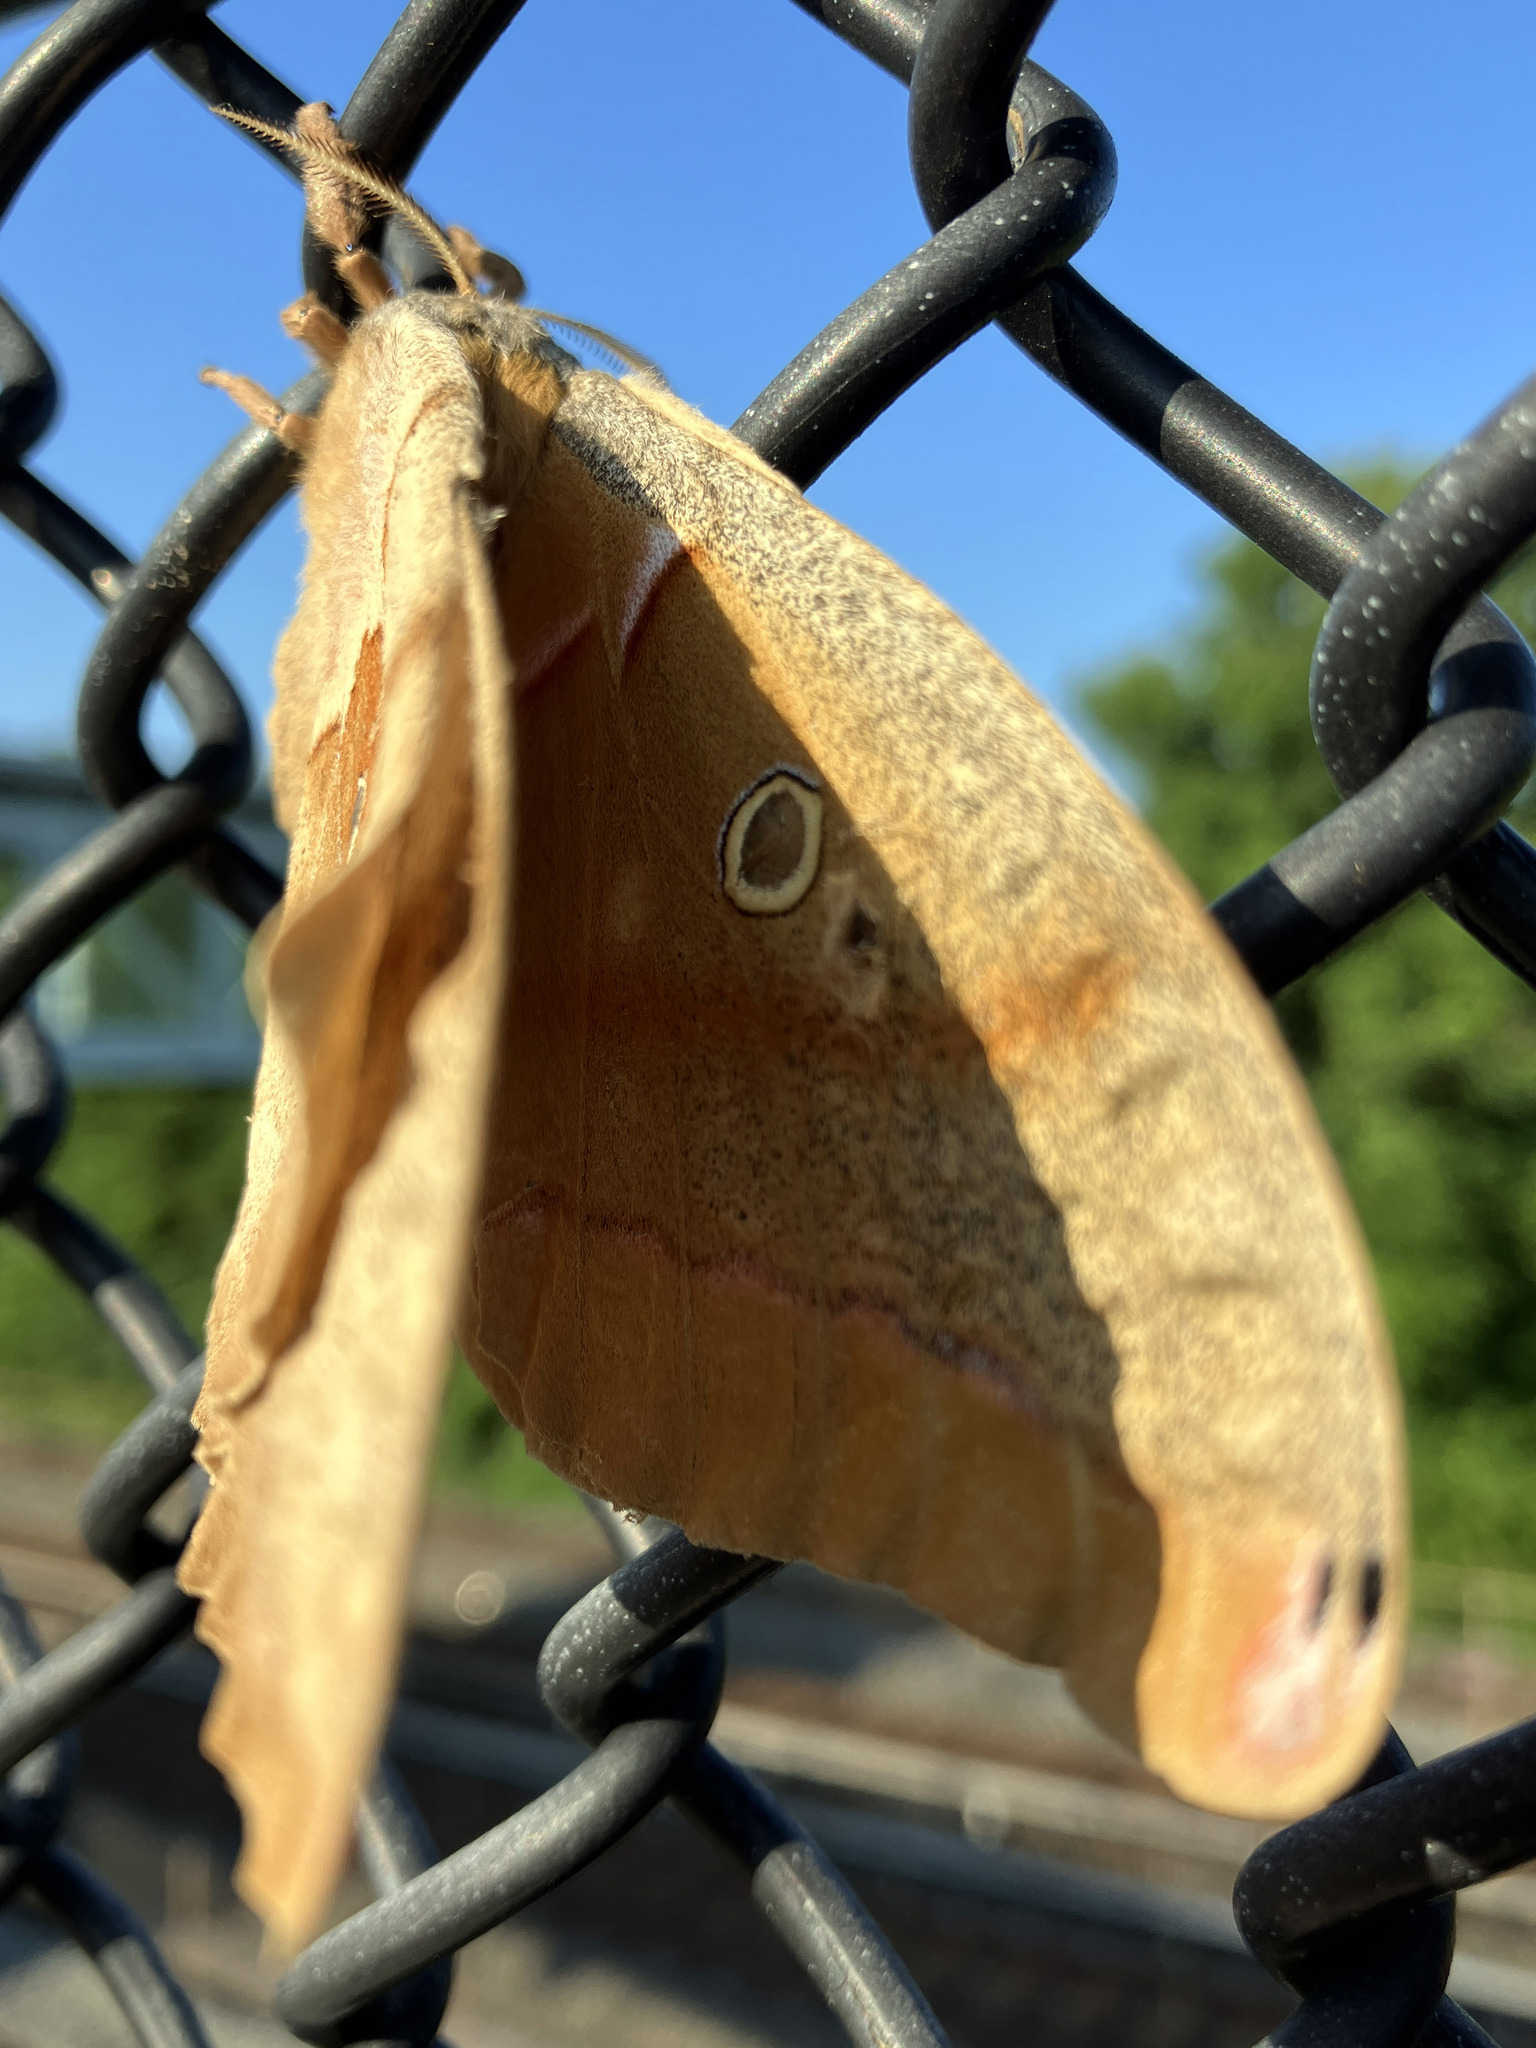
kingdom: Animalia
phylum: Arthropoda
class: Insecta
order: Lepidoptera
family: Saturniidae
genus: Antheraea
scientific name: Antheraea polyphemus
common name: Polyphemus moth
